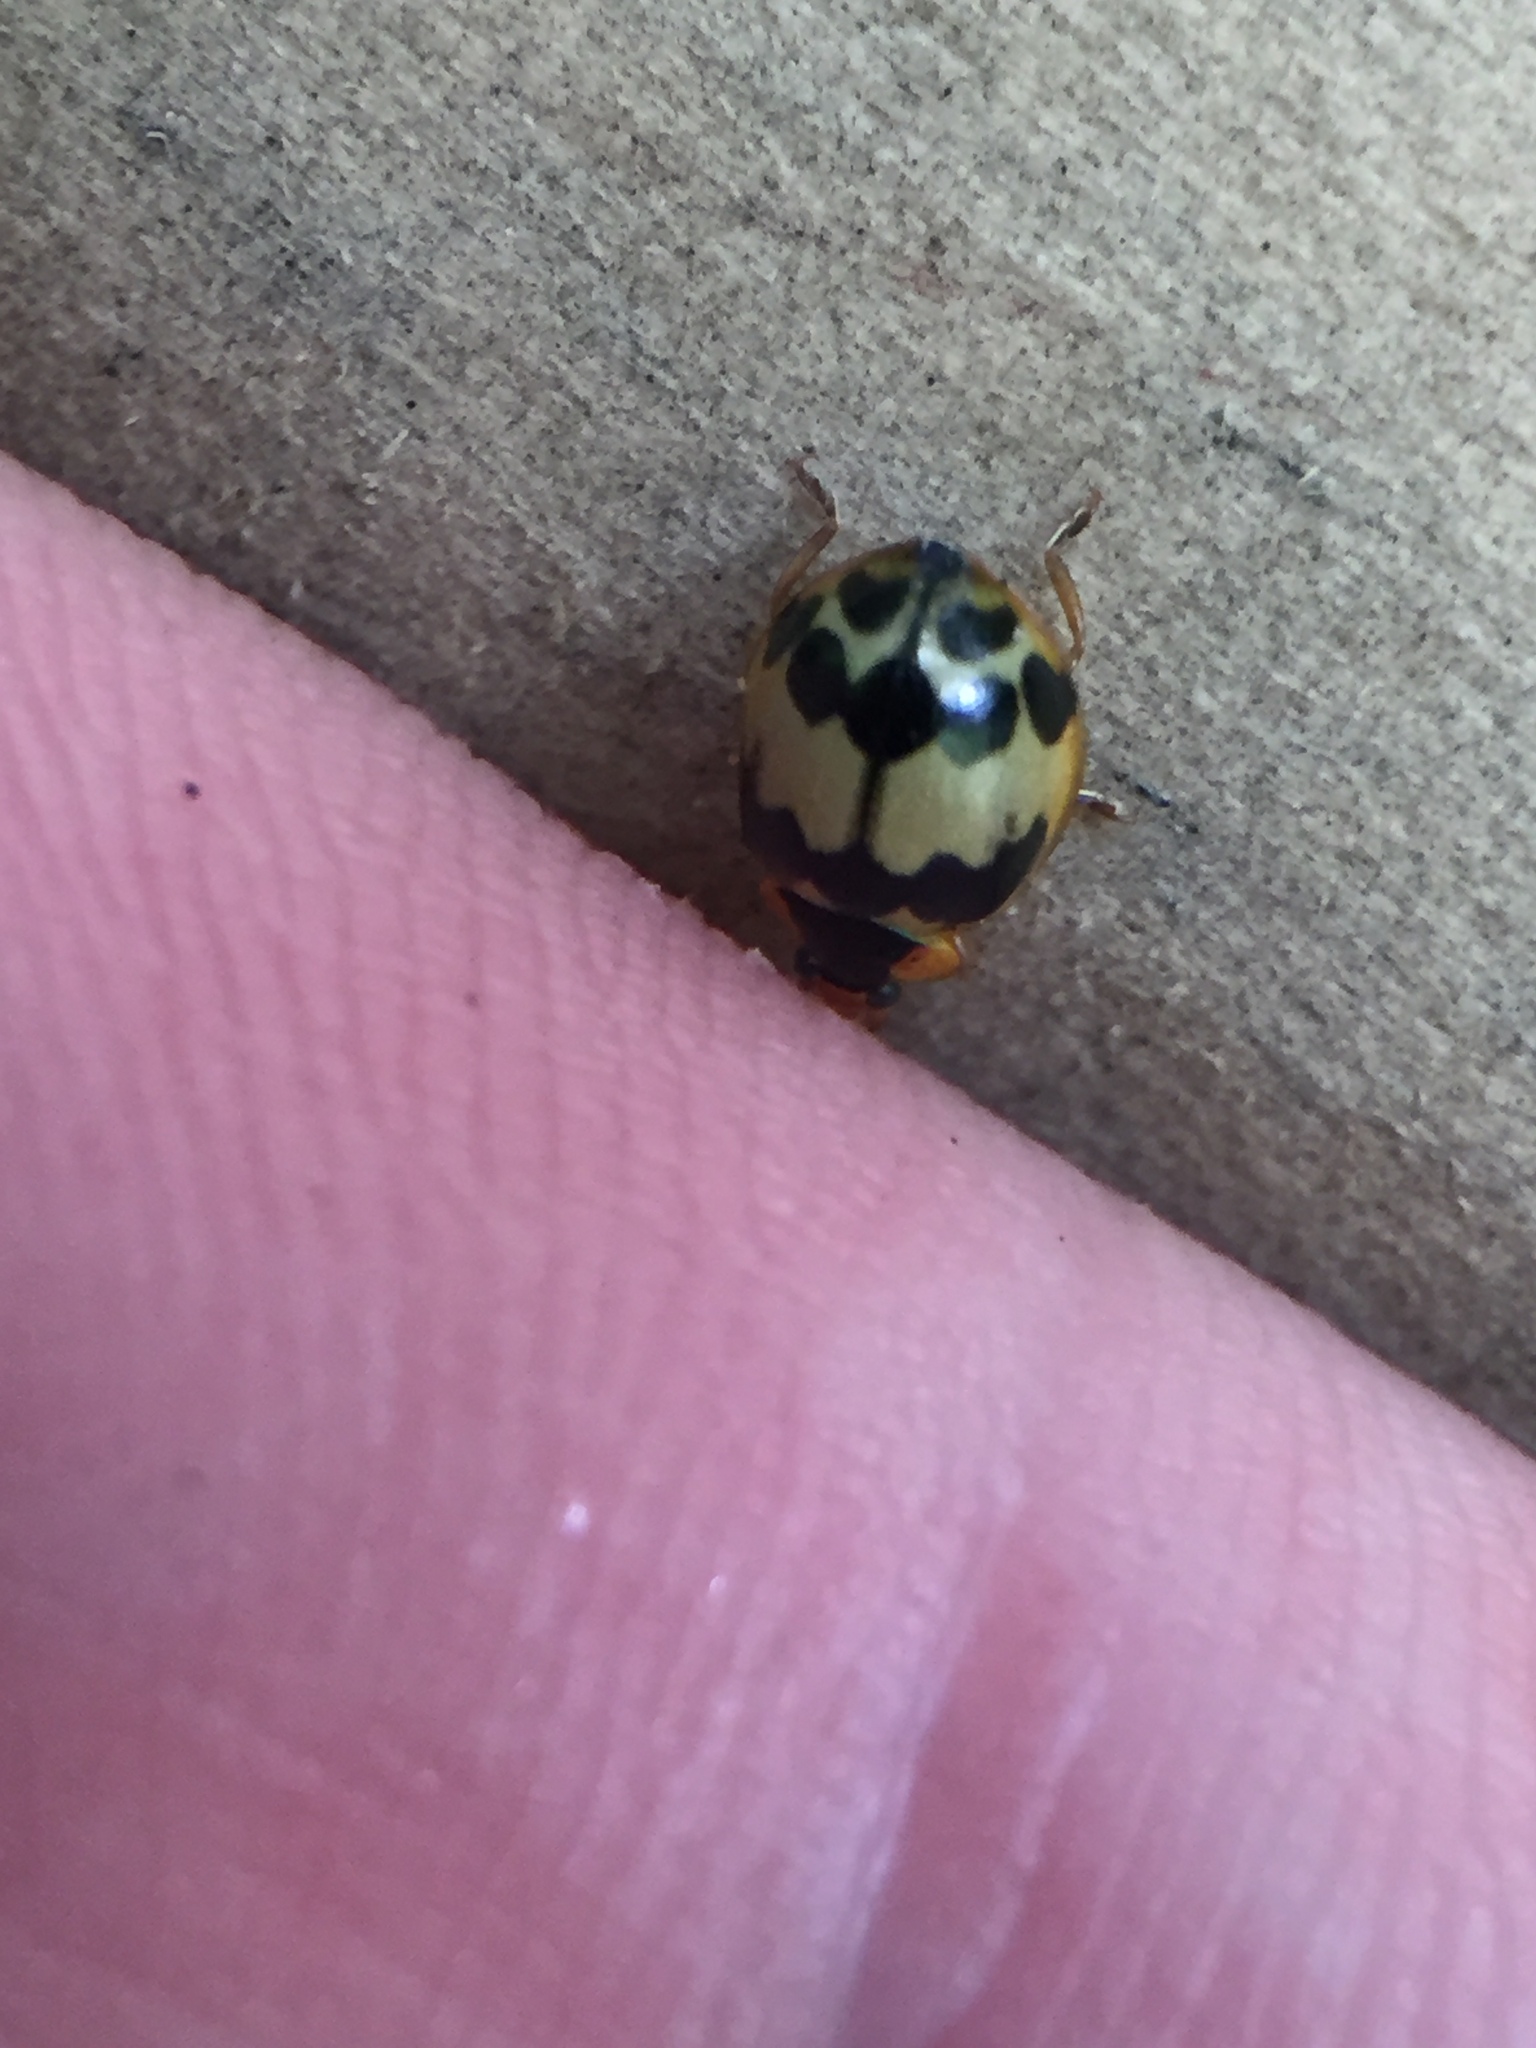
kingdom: Animalia
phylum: Arthropoda
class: Insecta
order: Coleoptera
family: Coccinellidae
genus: Harmonia
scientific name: Harmonia
